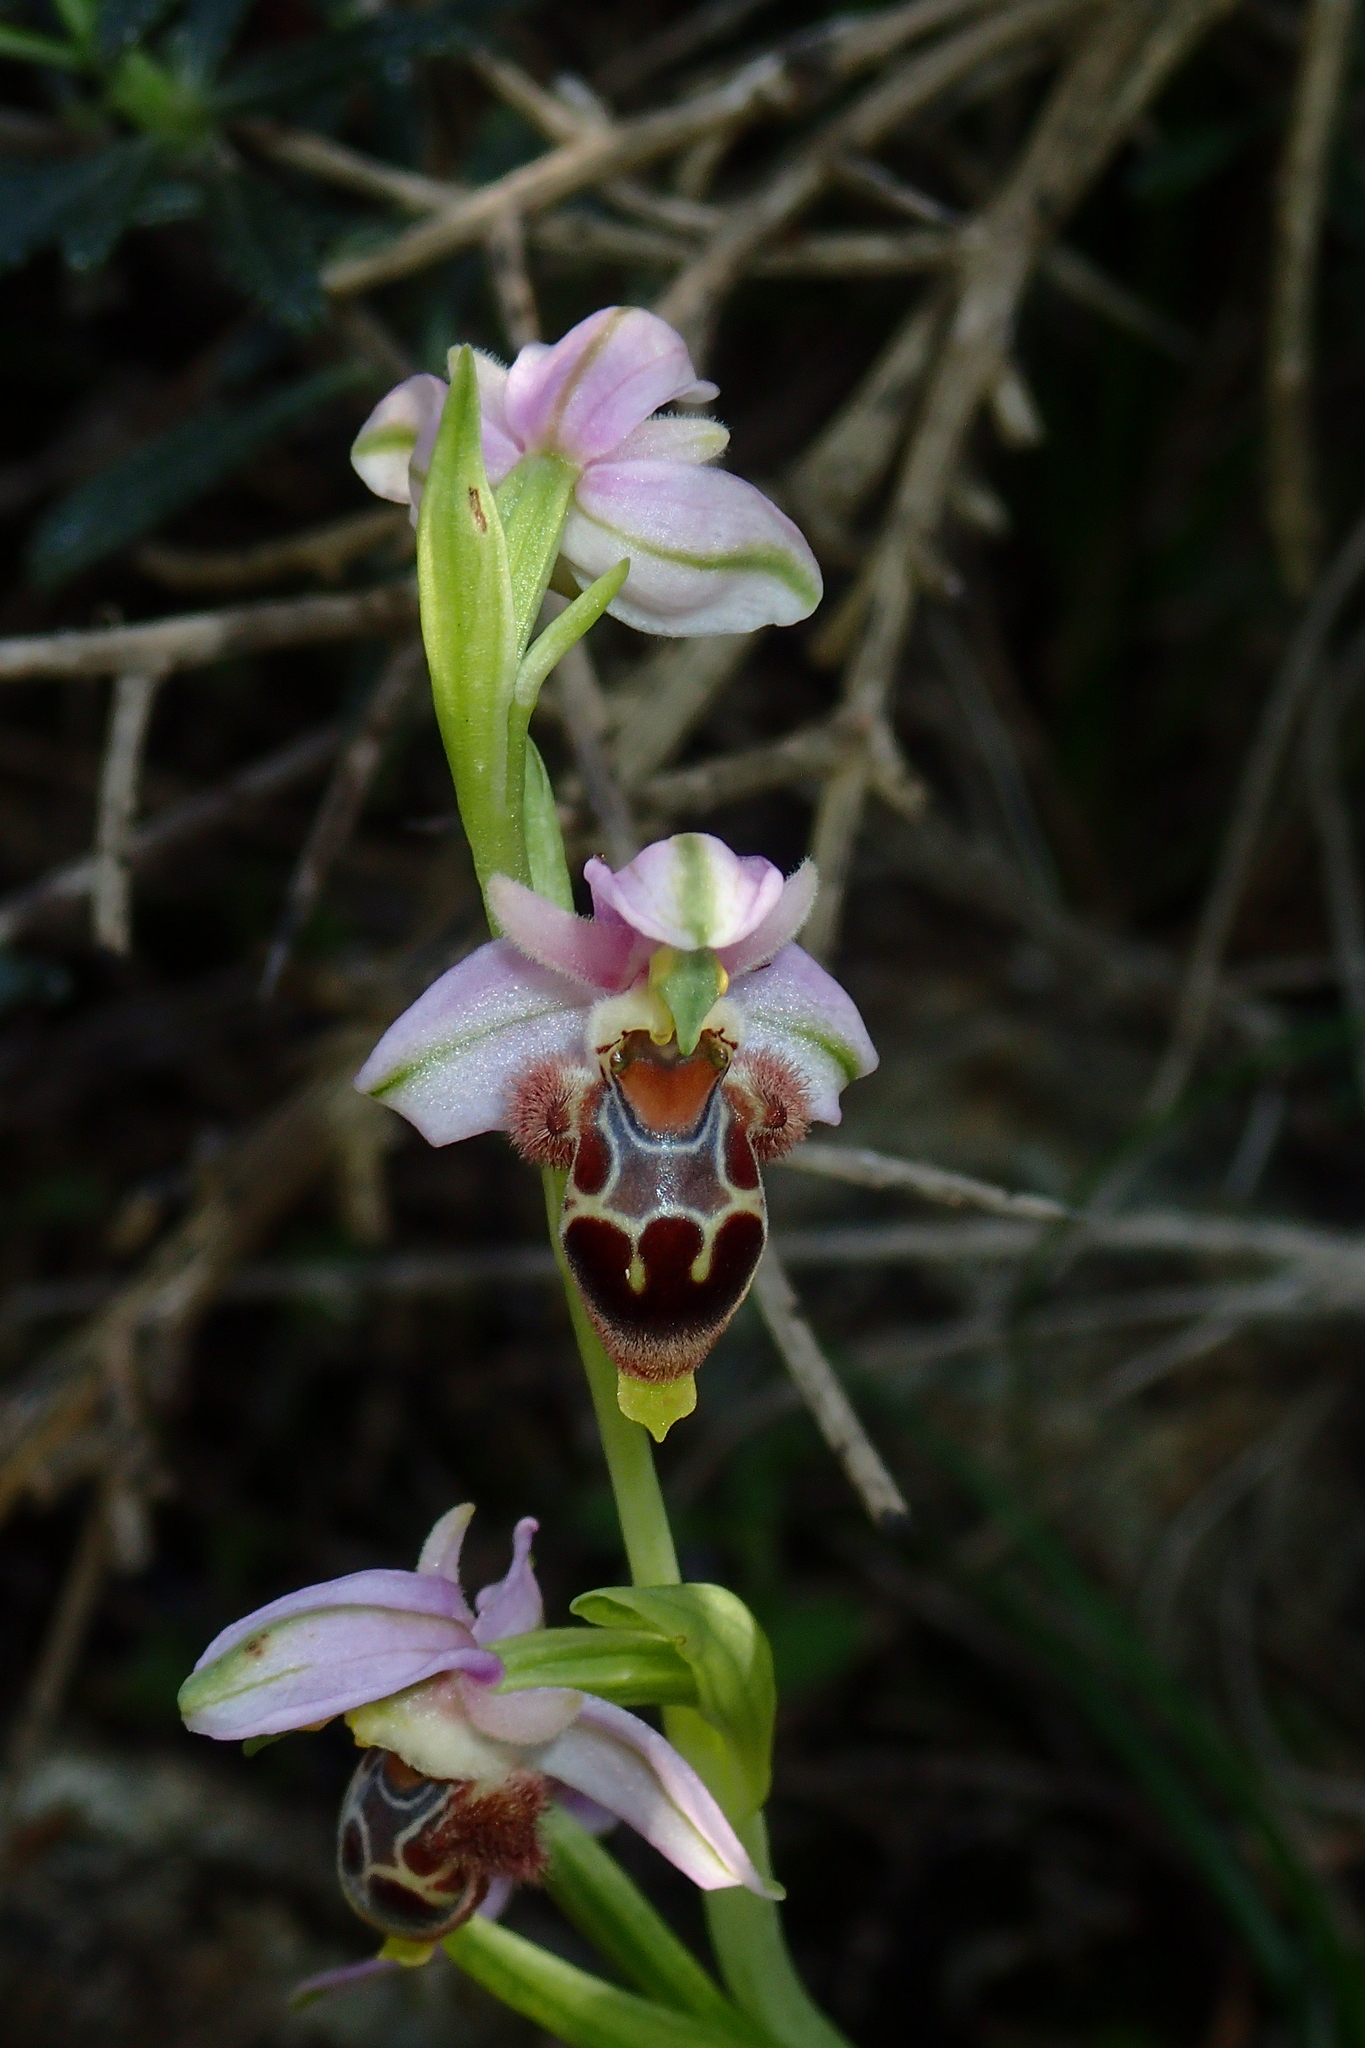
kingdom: Plantae
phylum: Tracheophyta
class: Liliopsida
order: Asparagales
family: Orchidaceae
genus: Ophrys
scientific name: Ophrys umbilicata
